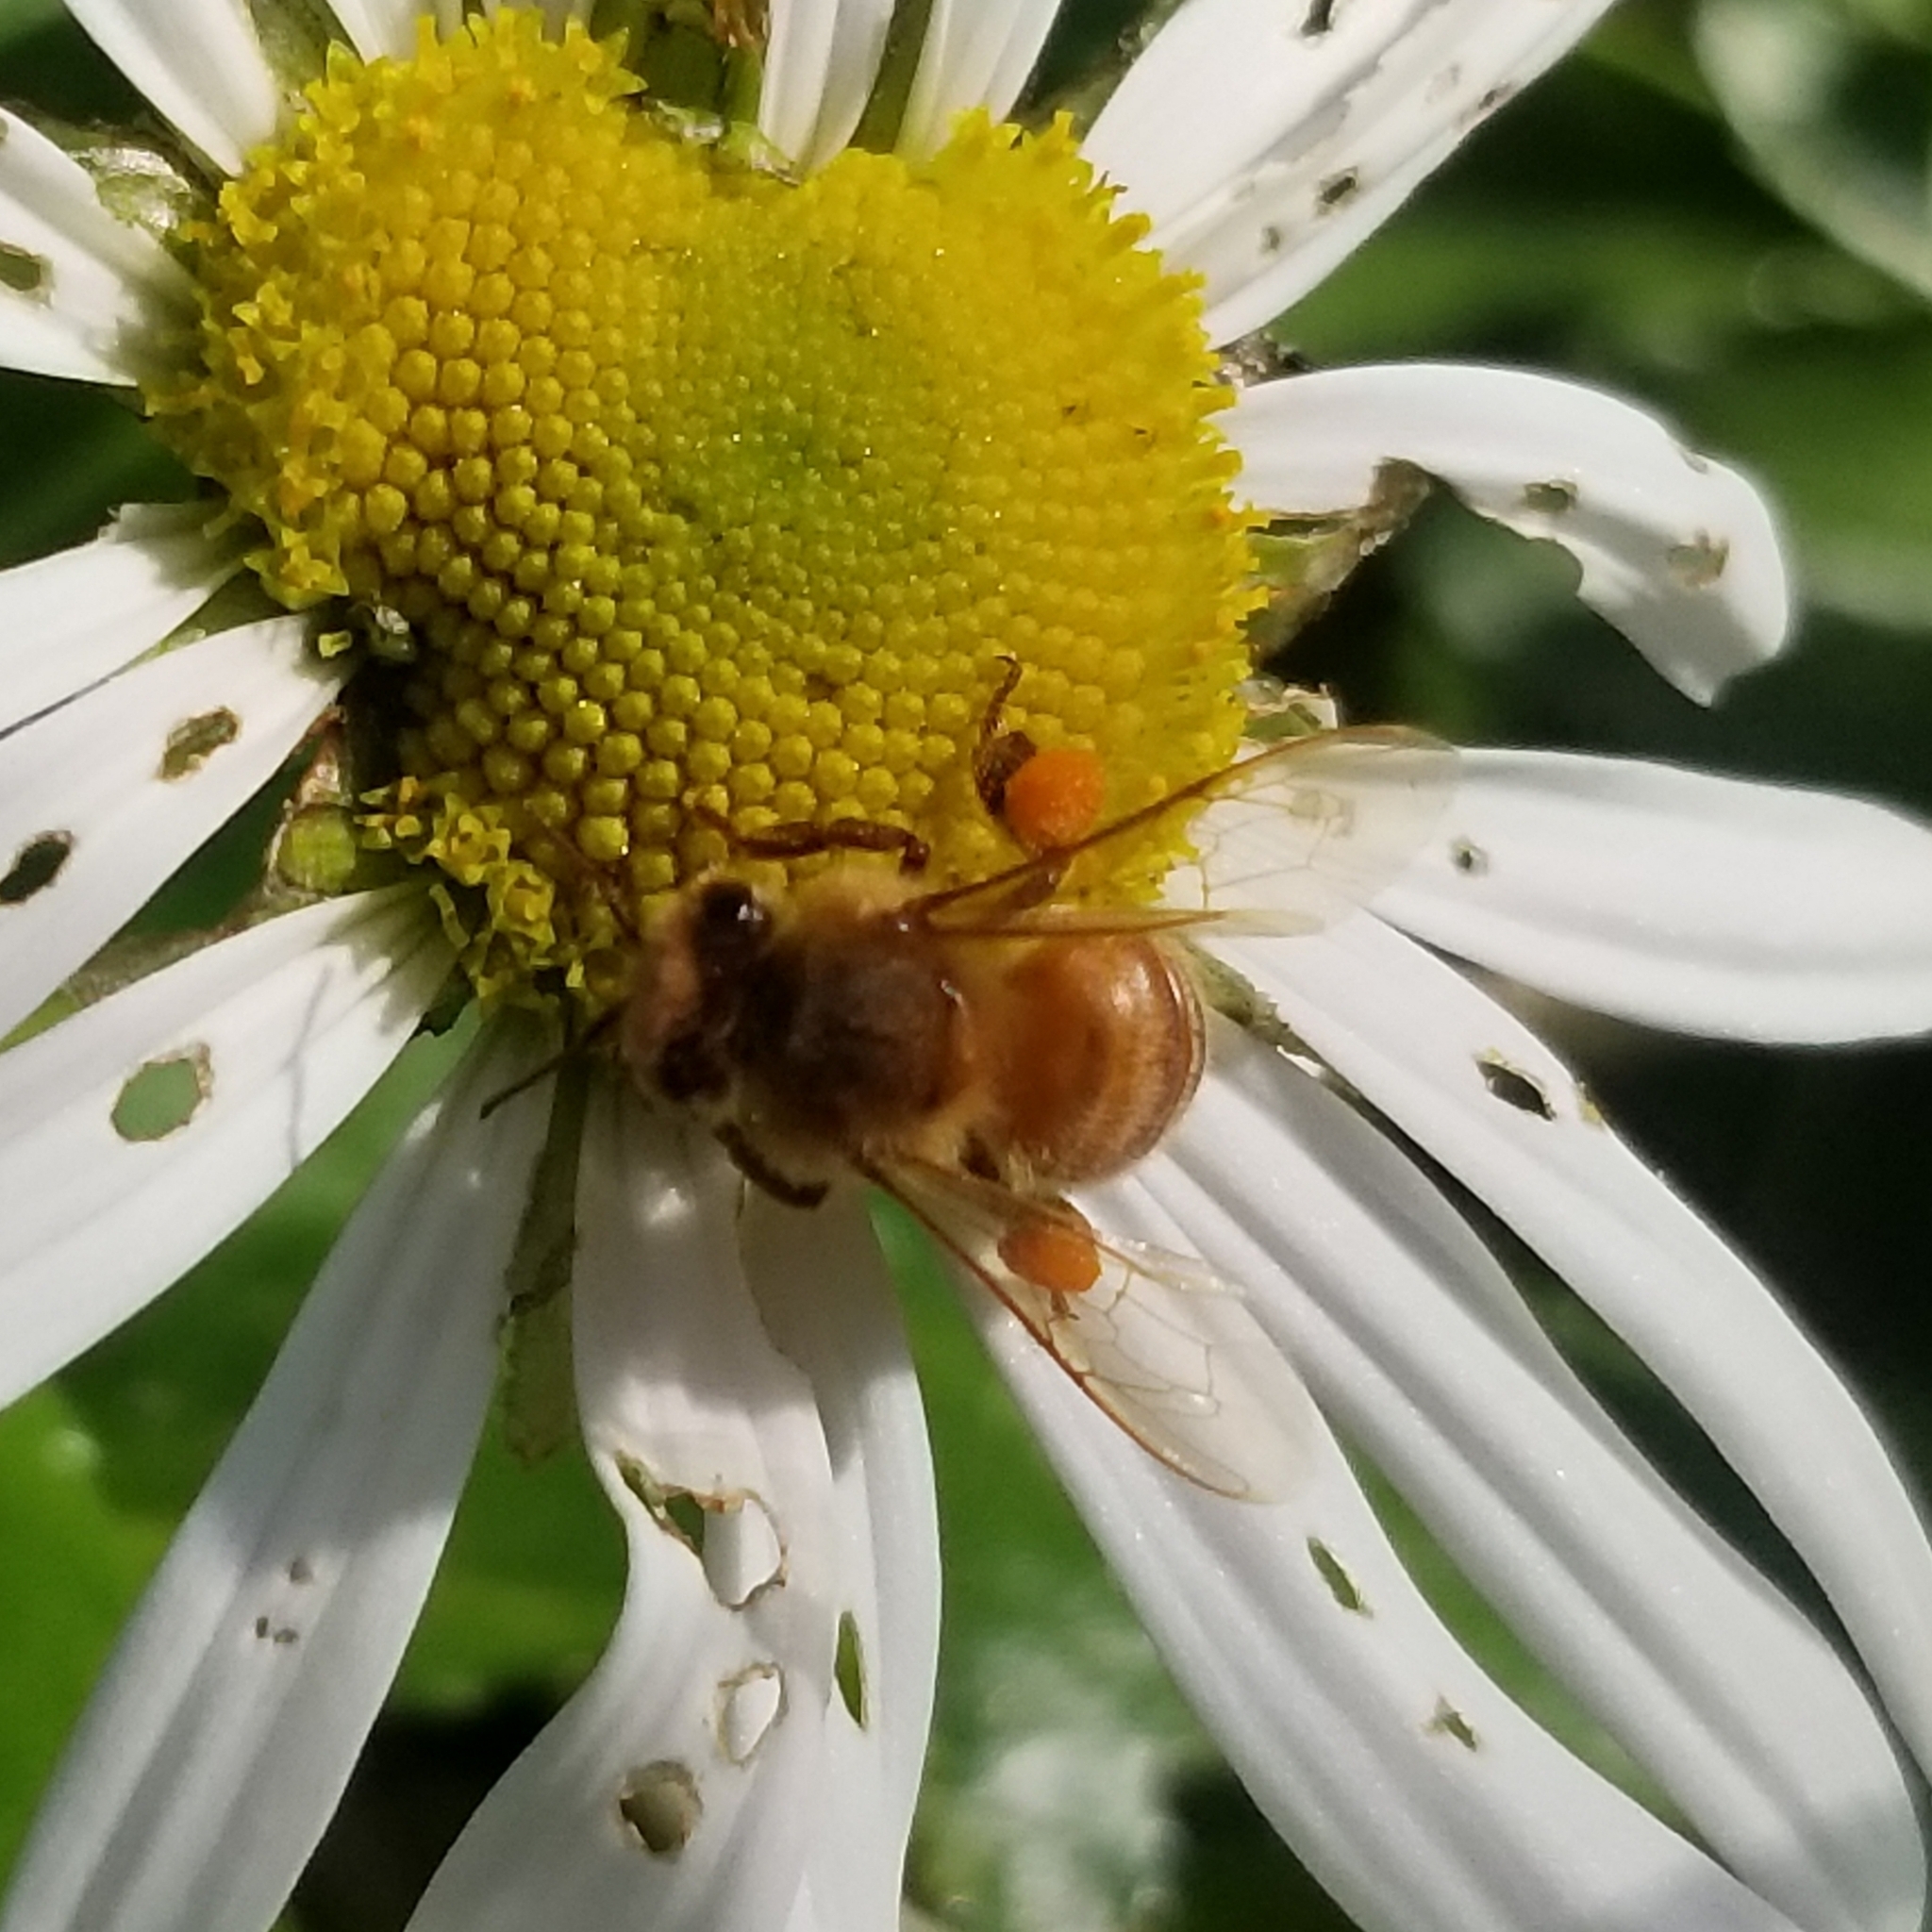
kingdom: Animalia
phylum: Arthropoda
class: Insecta
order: Hymenoptera
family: Apidae
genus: Apis
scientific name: Apis mellifera
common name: Honey bee
